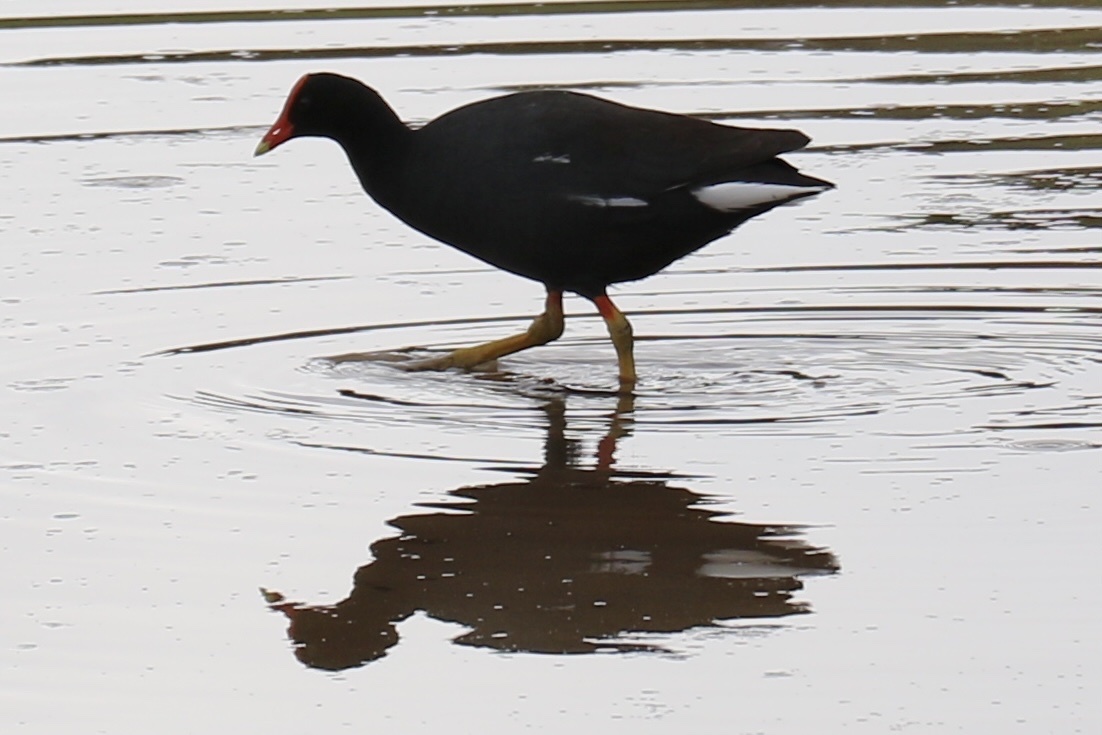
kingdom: Animalia
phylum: Chordata
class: Aves
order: Gruiformes
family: Rallidae
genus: Gallinula
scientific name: Gallinula chloropus
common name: Common moorhen
